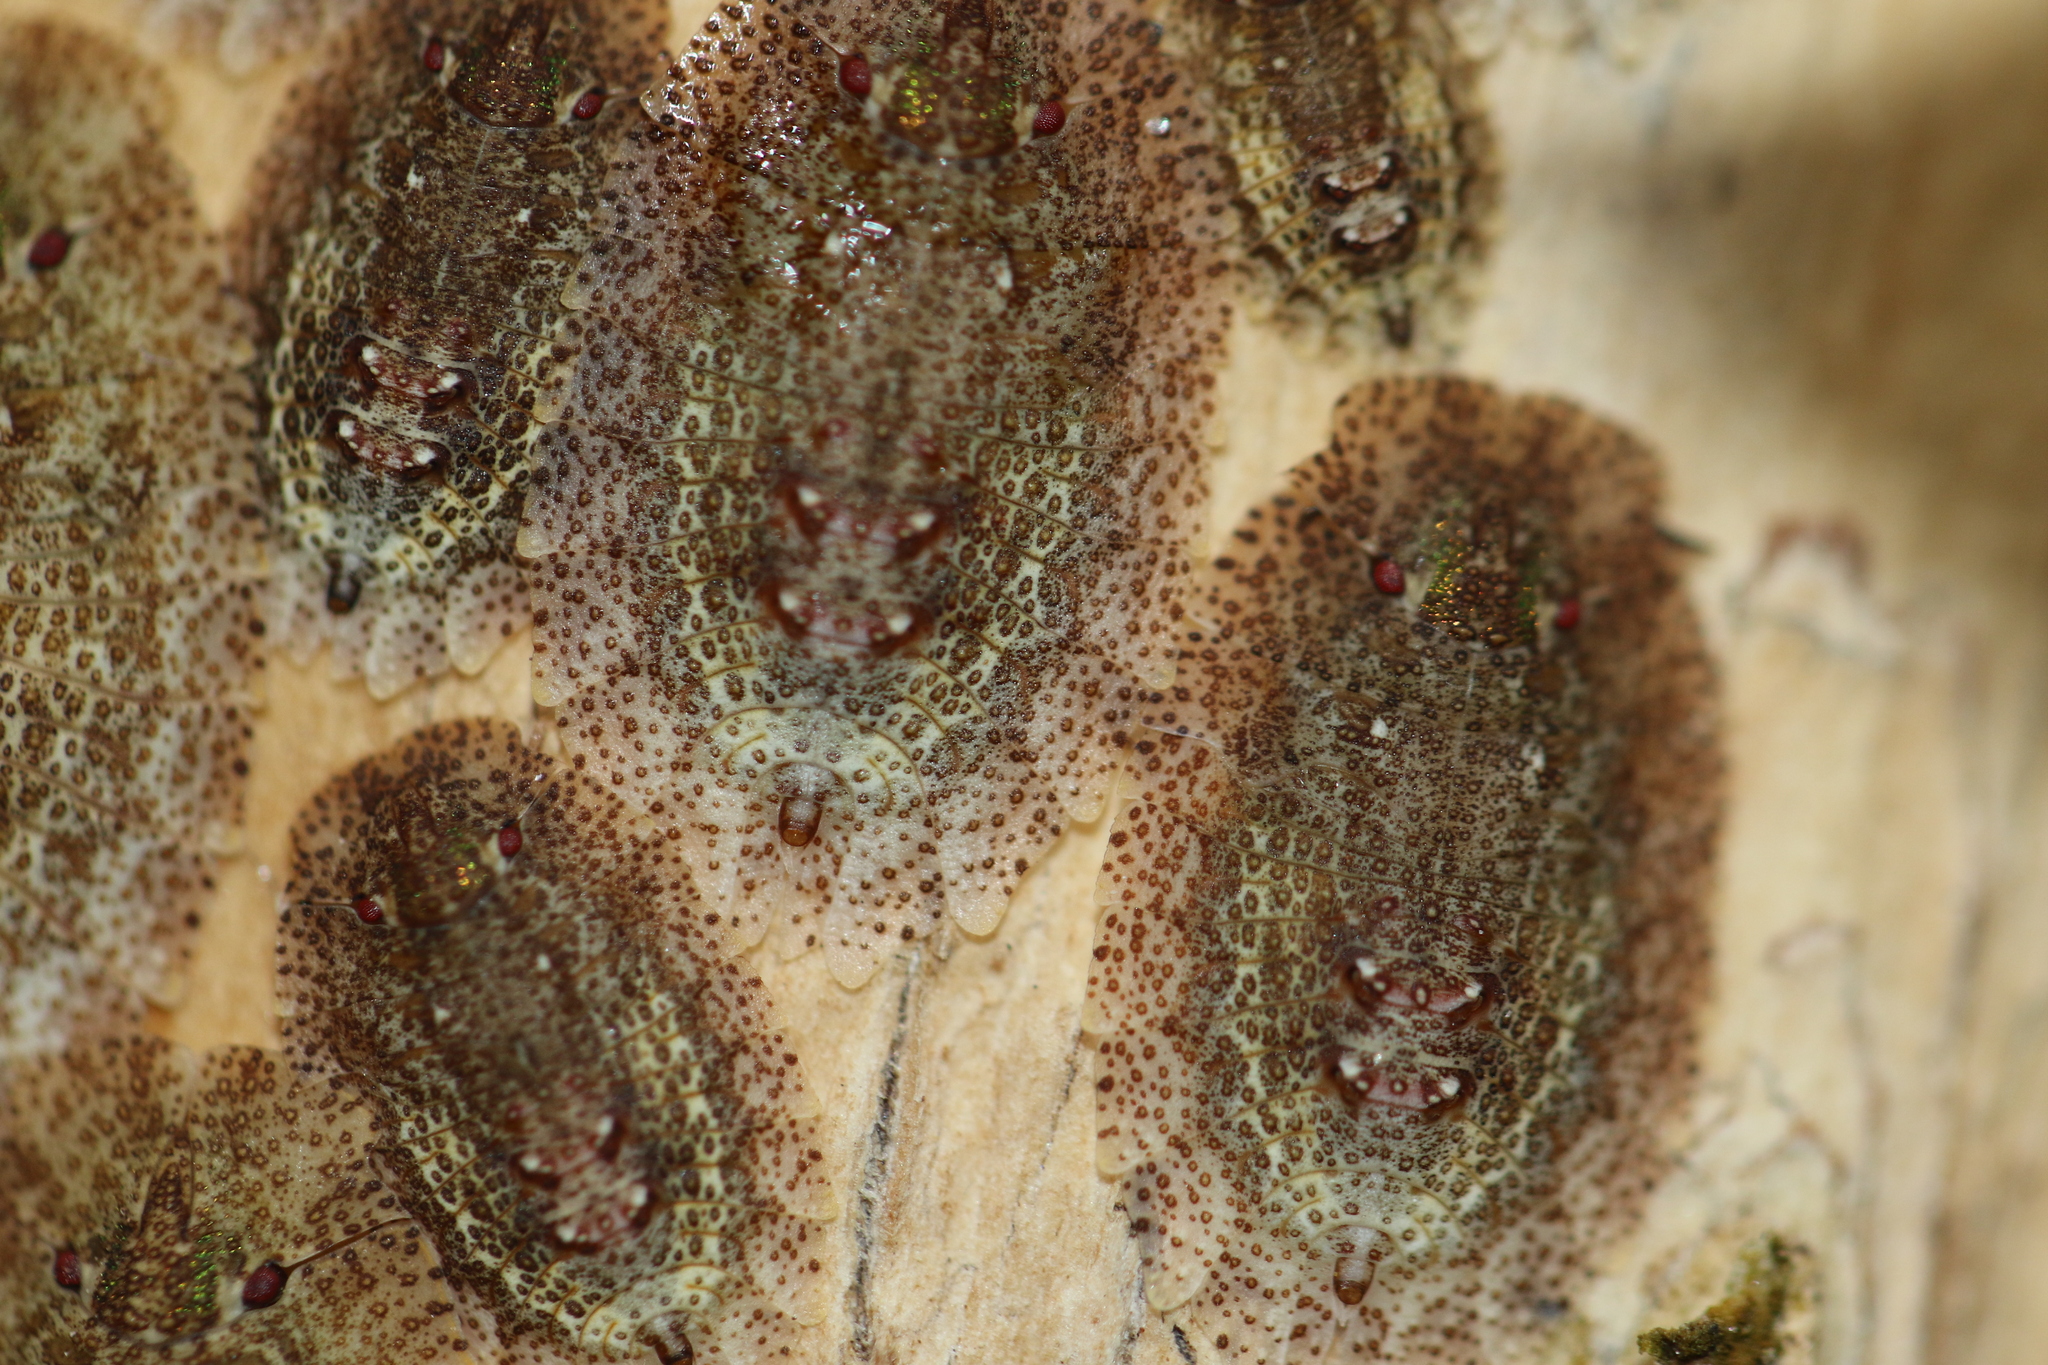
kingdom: Animalia
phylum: Arthropoda
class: Insecta
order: Hemiptera
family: Phleides
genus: Phloea
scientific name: Phloea
